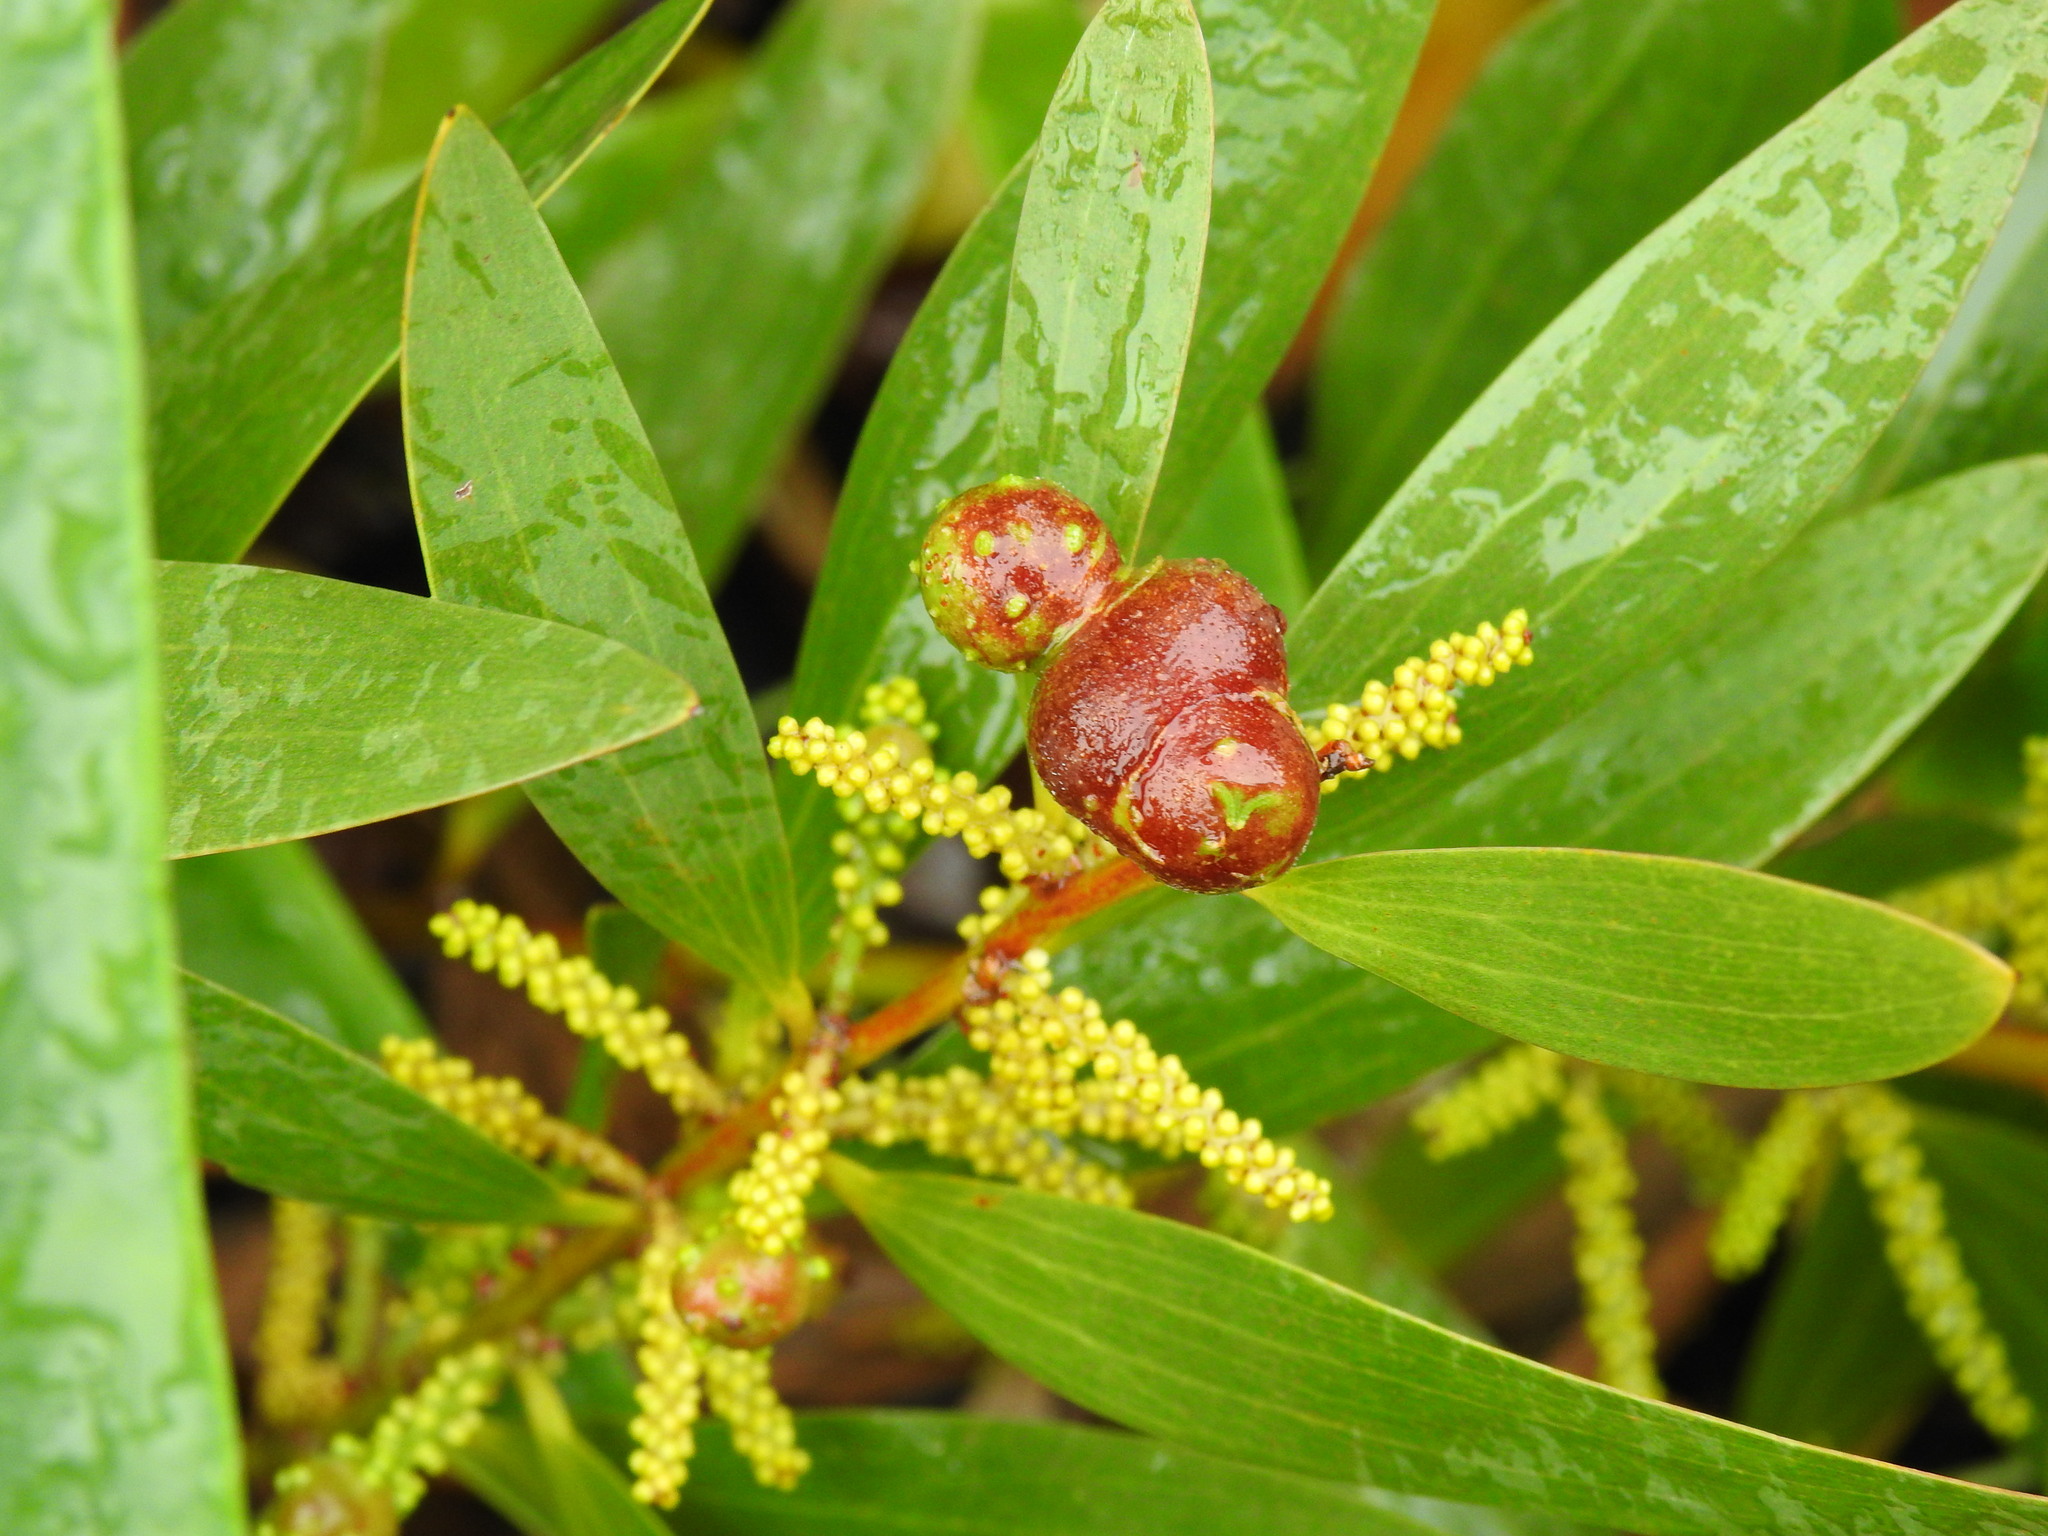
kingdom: Animalia
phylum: Arthropoda
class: Insecta
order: Hymenoptera
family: Pteromalidae
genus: Trichilogaster
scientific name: Trichilogaster acaciaelongifoliae
